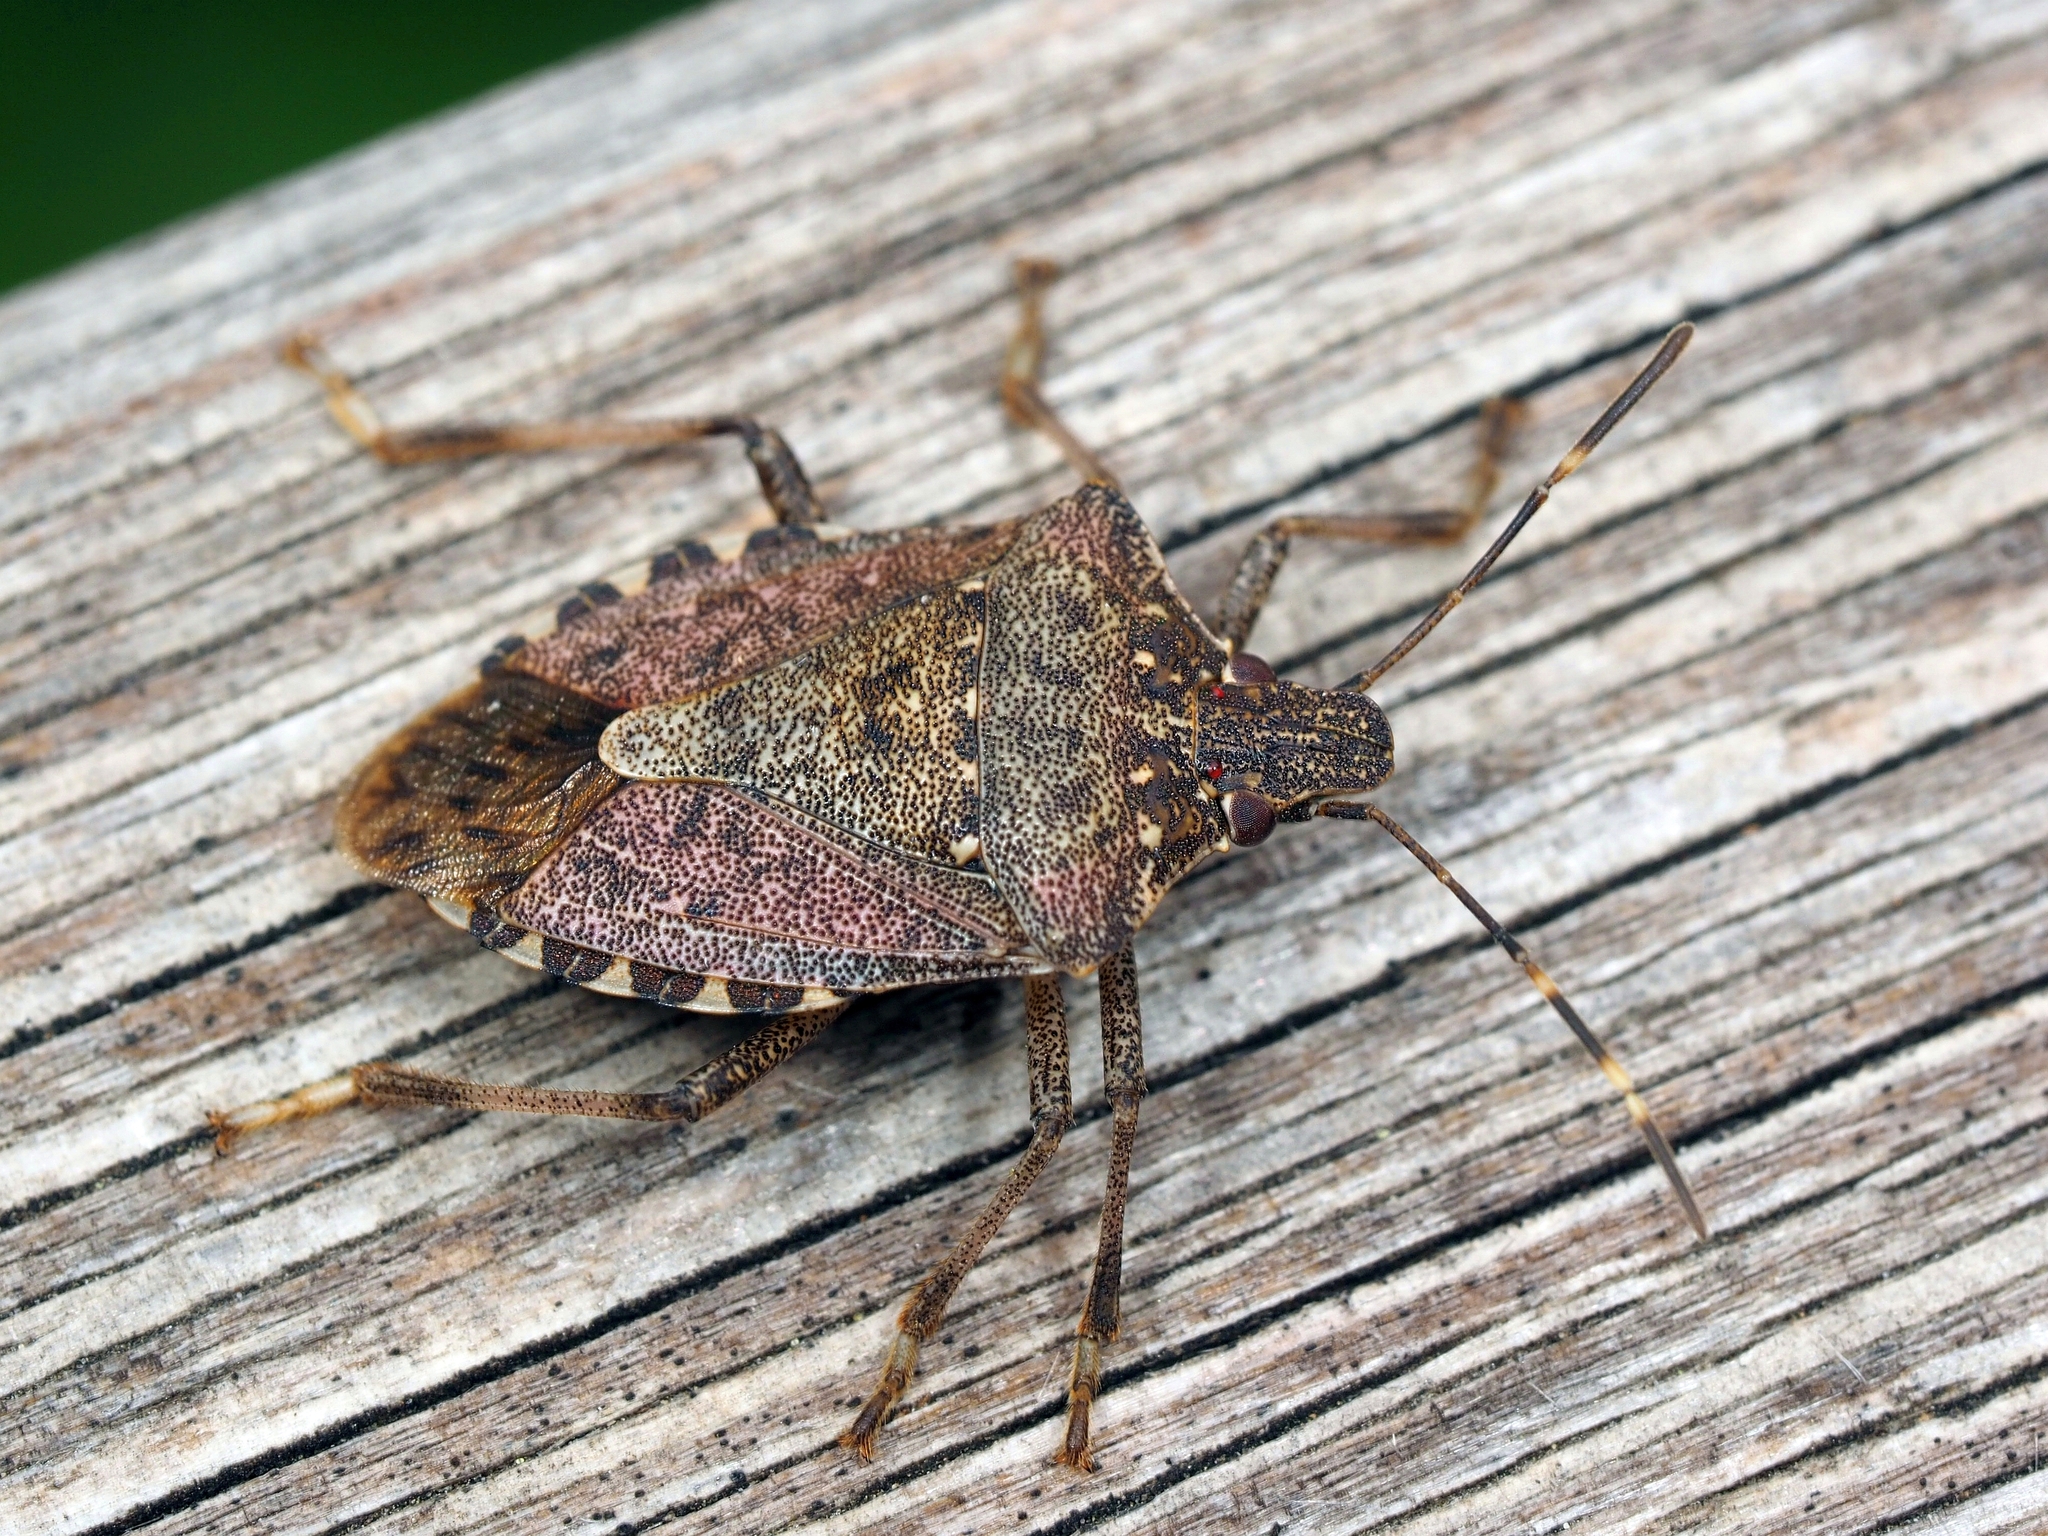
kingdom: Animalia
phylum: Arthropoda
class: Insecta
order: Hemiptera
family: Pentatomidae
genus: Halyomorpha
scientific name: Halyomorpha halys
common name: Brown marmorated stink bug
